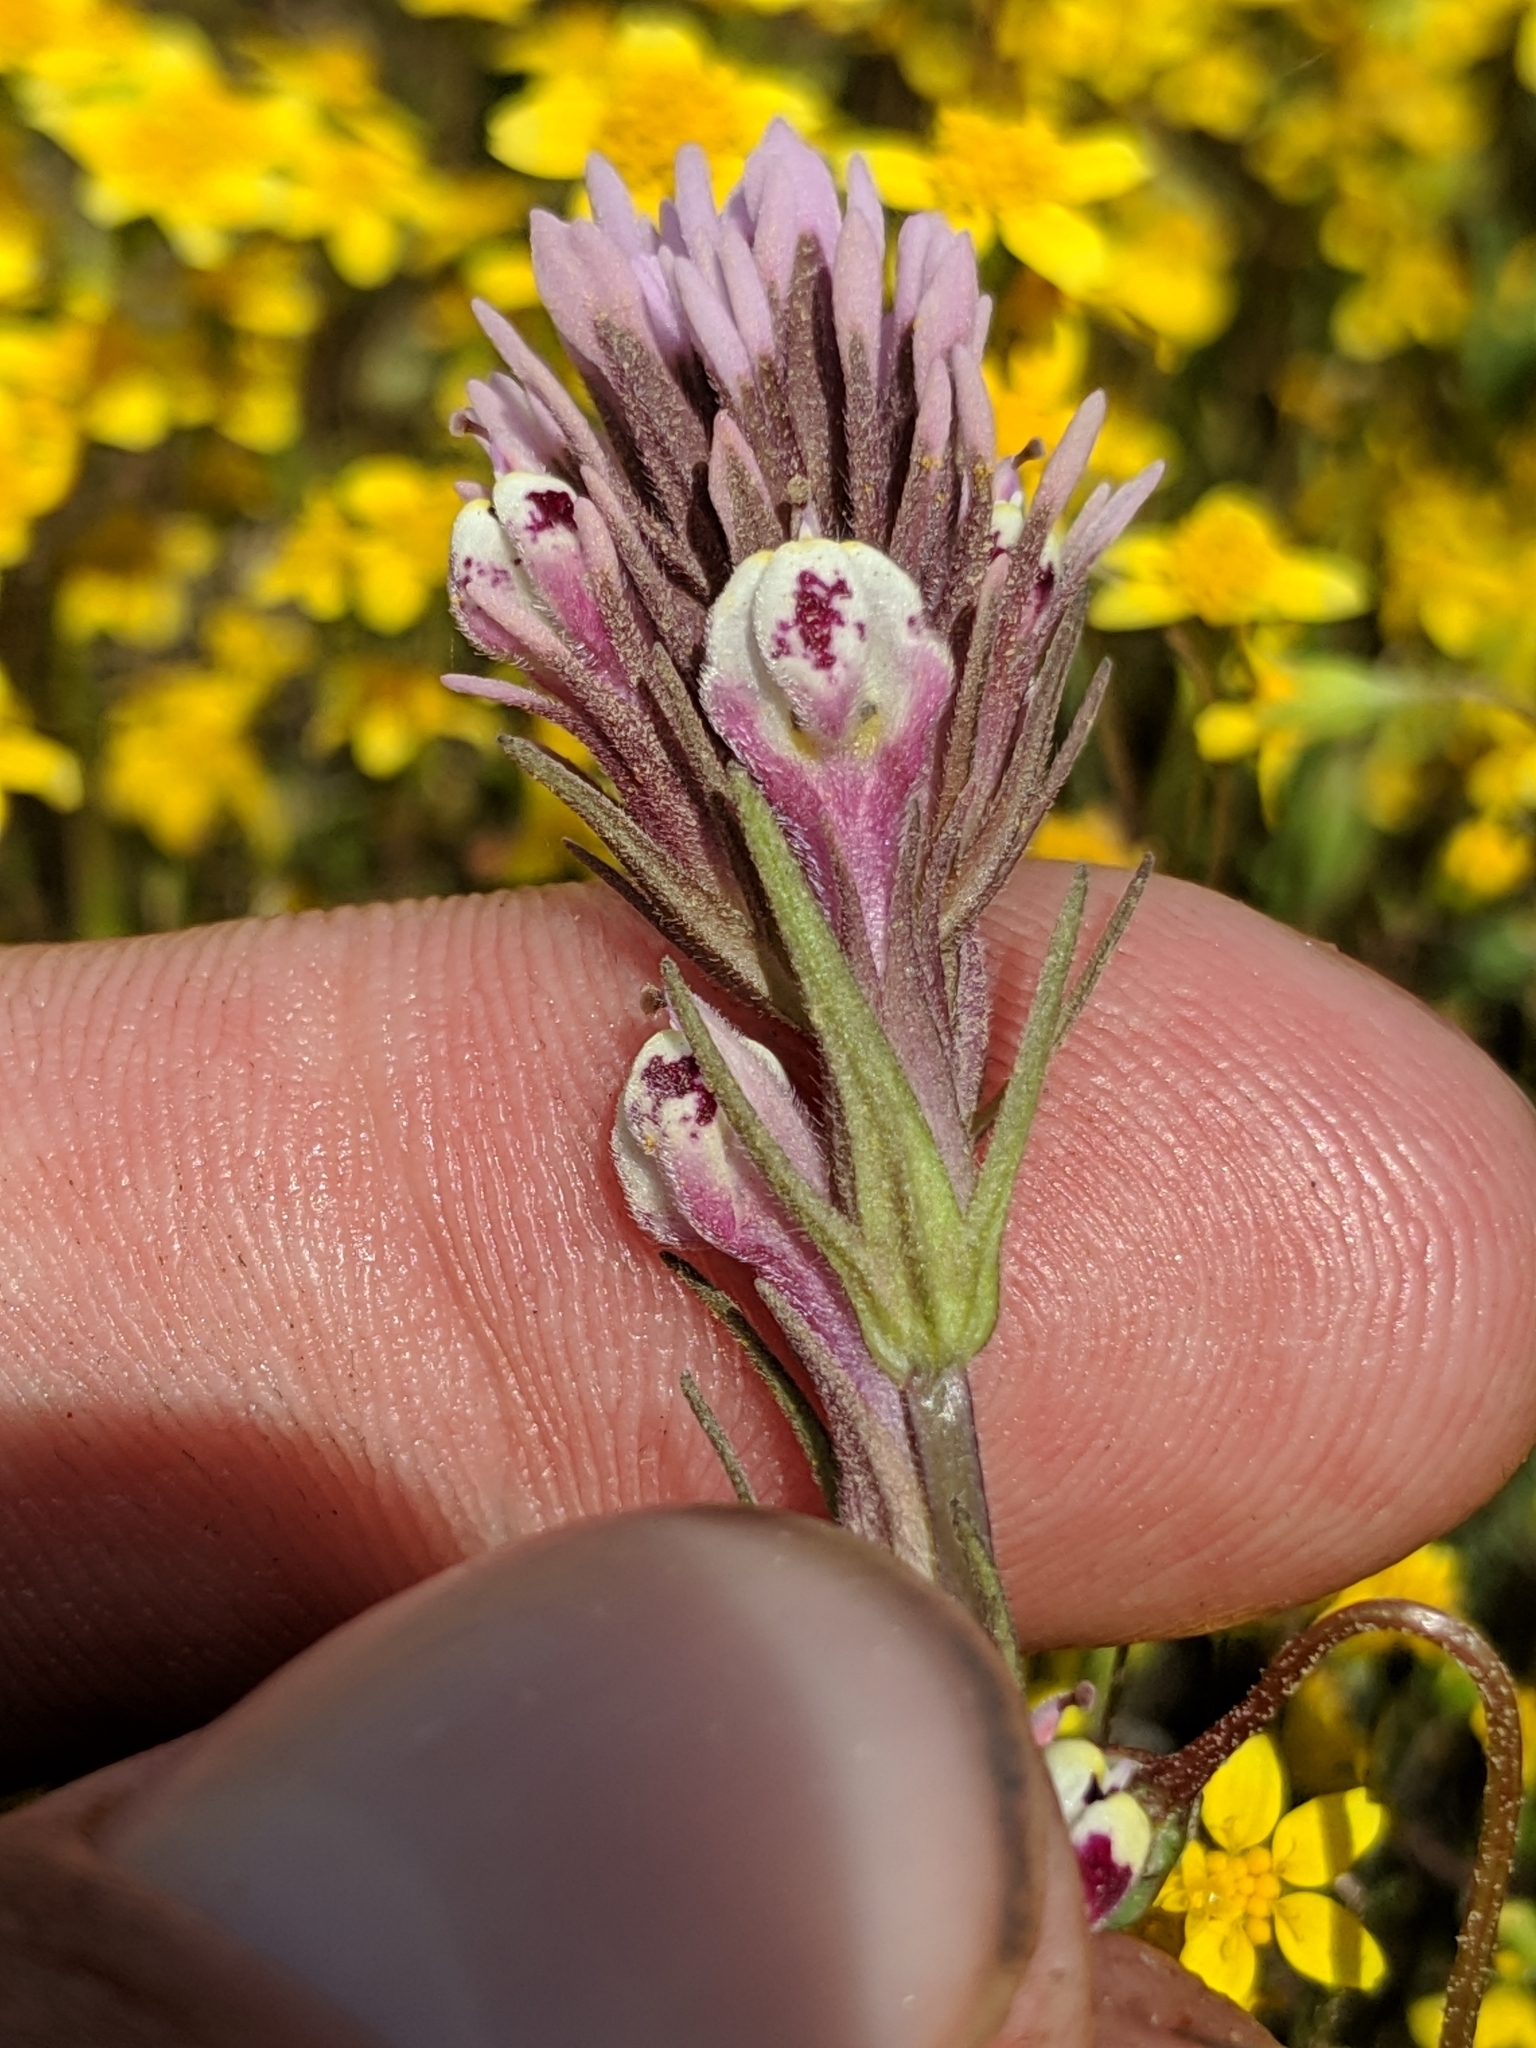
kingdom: Plantae
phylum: Tracheophyta
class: Magnoliopsida
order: Lamiales
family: Orobanchaceae
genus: Castilleja
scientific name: Castilleja densiflora
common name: Dense-flower indian paintbrush
